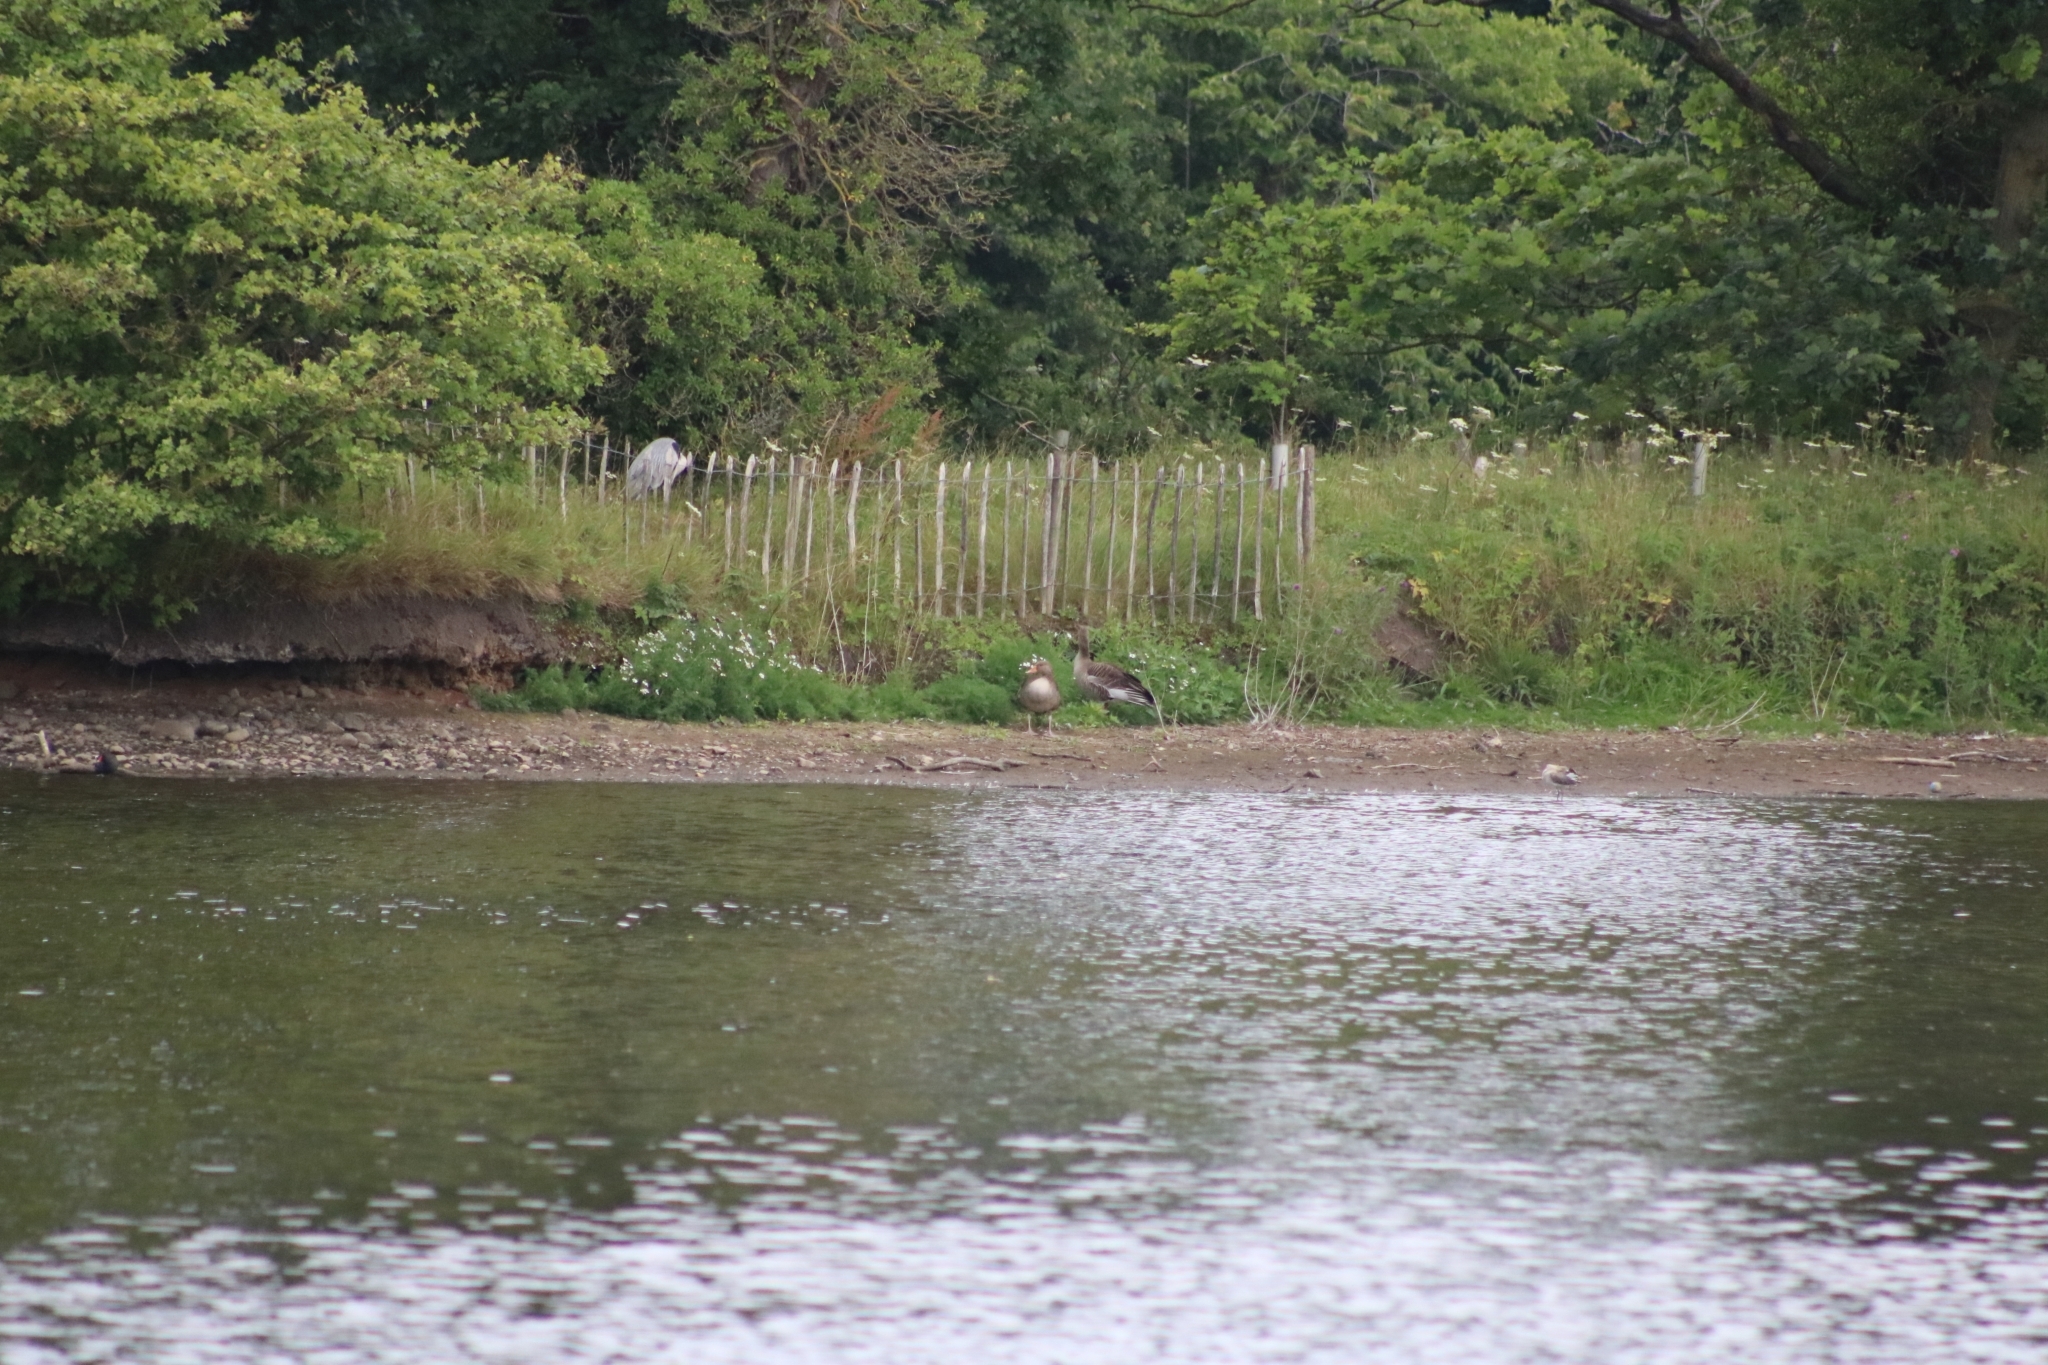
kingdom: Animalia
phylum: Chordata
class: Aves
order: Anseriformes
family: Anatidae
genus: Anser
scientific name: Anser anser
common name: Greylag goose
